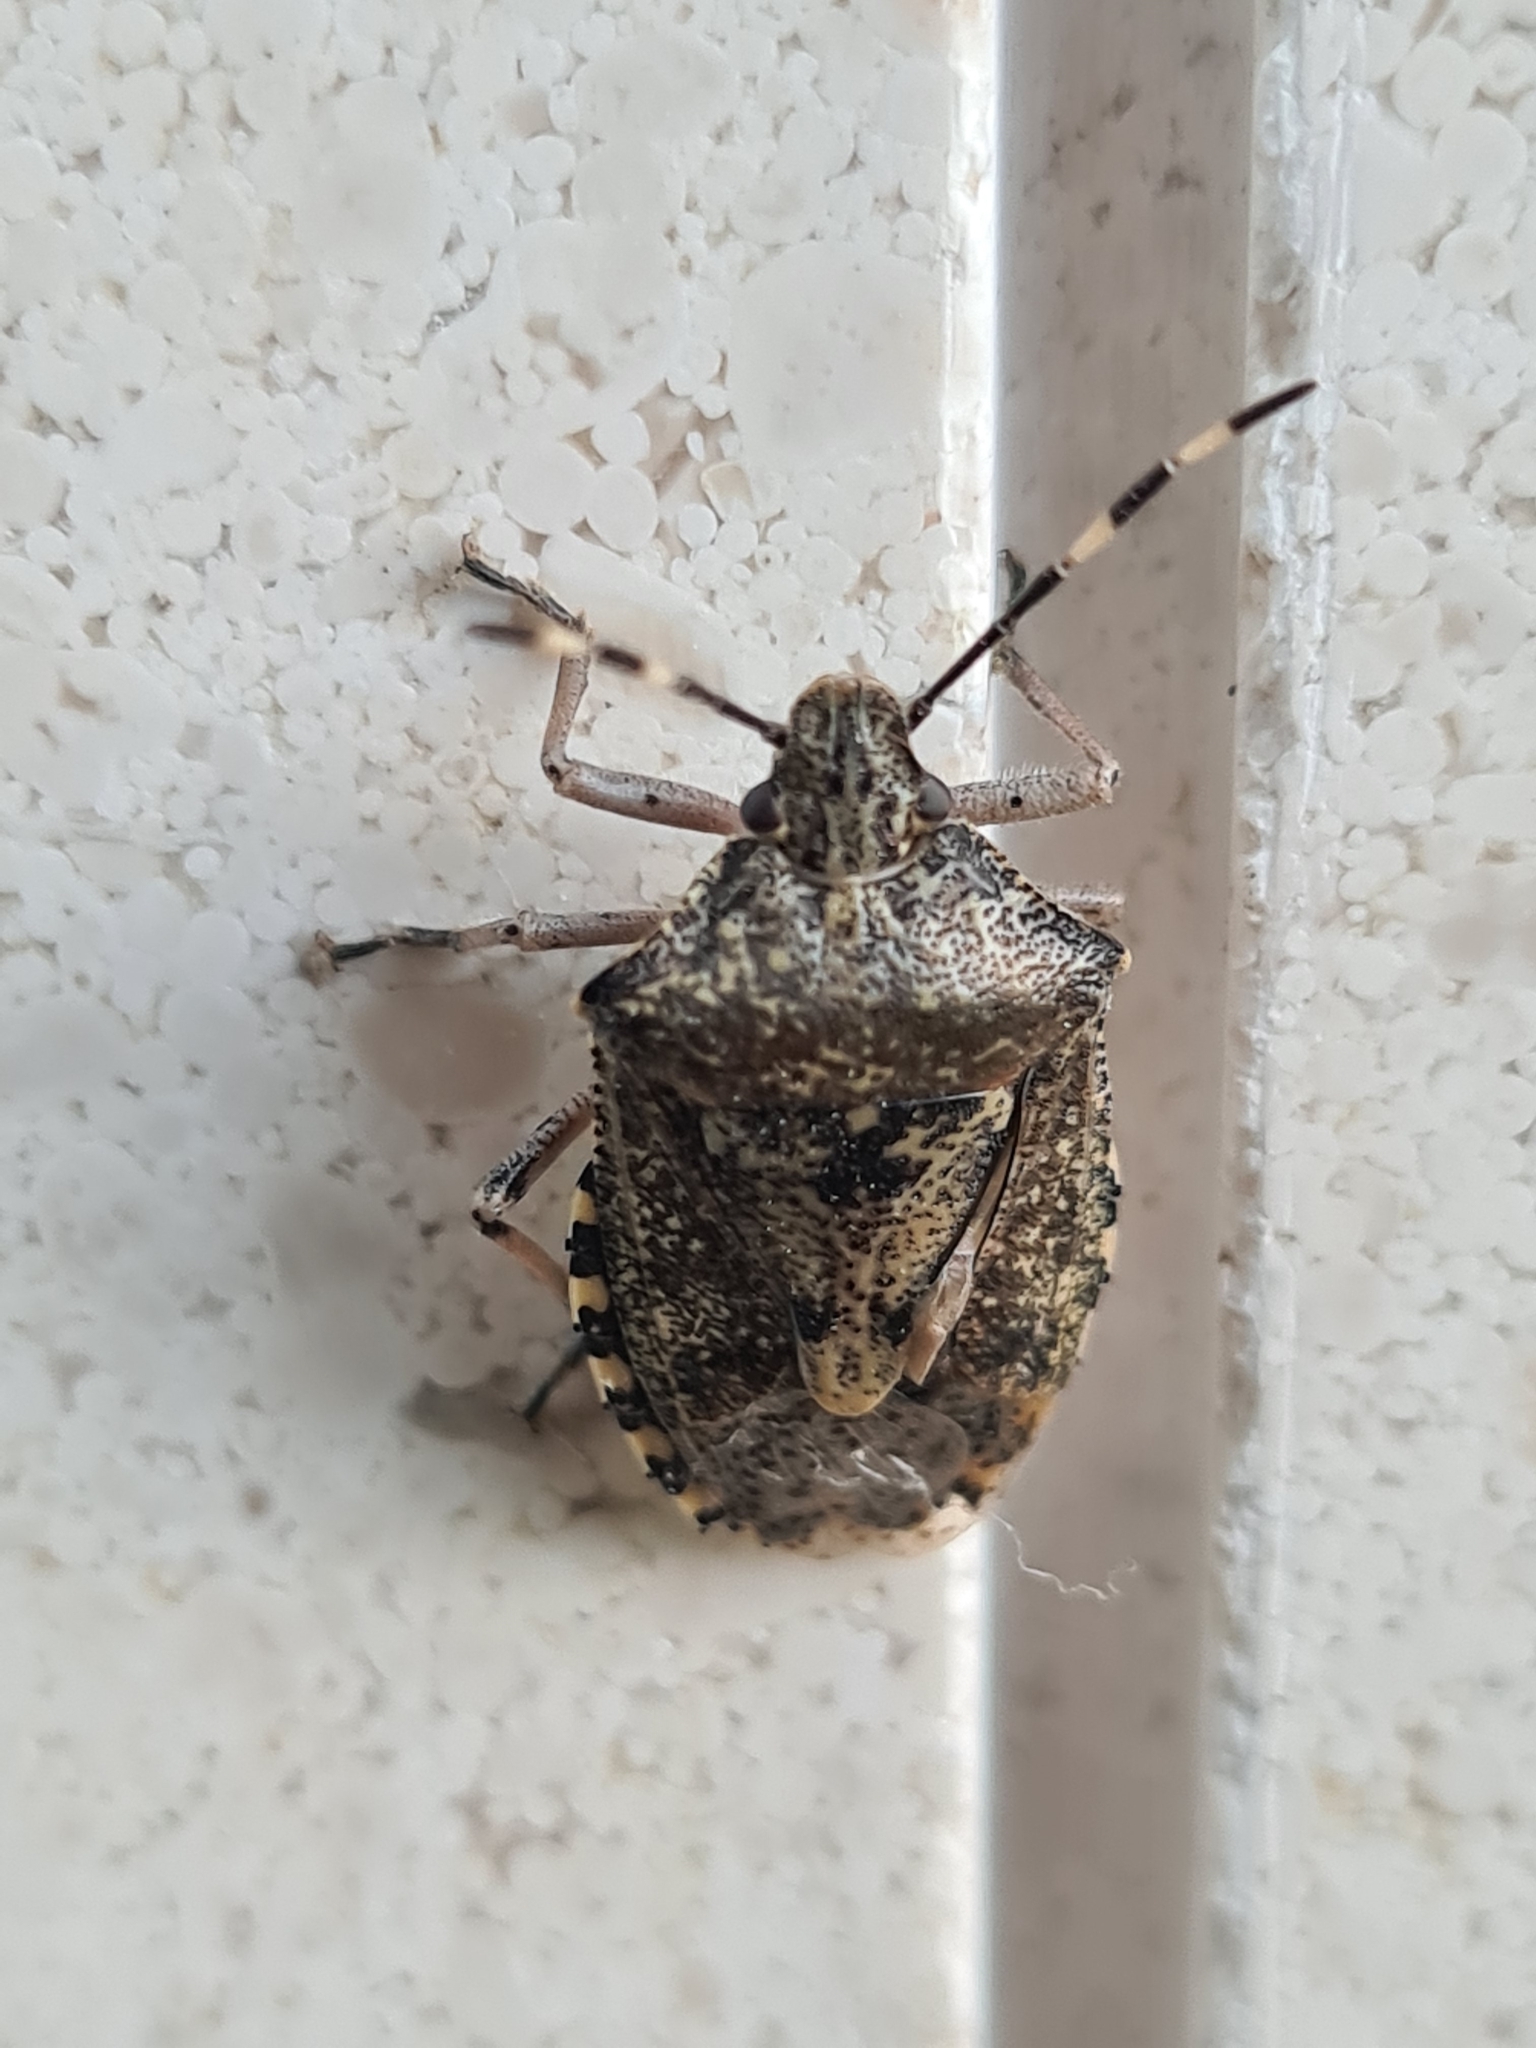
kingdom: Animalia
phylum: Arthropoda
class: Insecta
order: Hemiptera
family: Pentatomidae
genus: Rhaphigaster
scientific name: Rhaphigaster nebulosa
